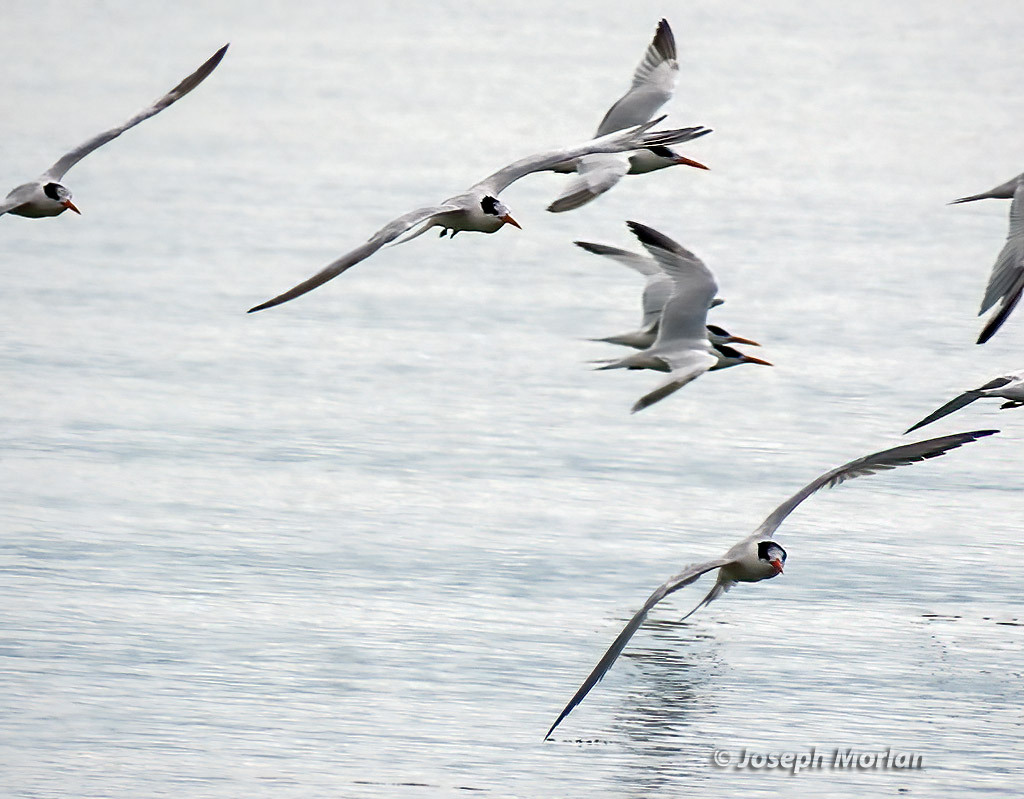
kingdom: Animalia
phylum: Chordata
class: Aves
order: Charadriiformes
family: Laridae
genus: Thalasseus
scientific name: Thalasseus elegans
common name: Elegant tern
